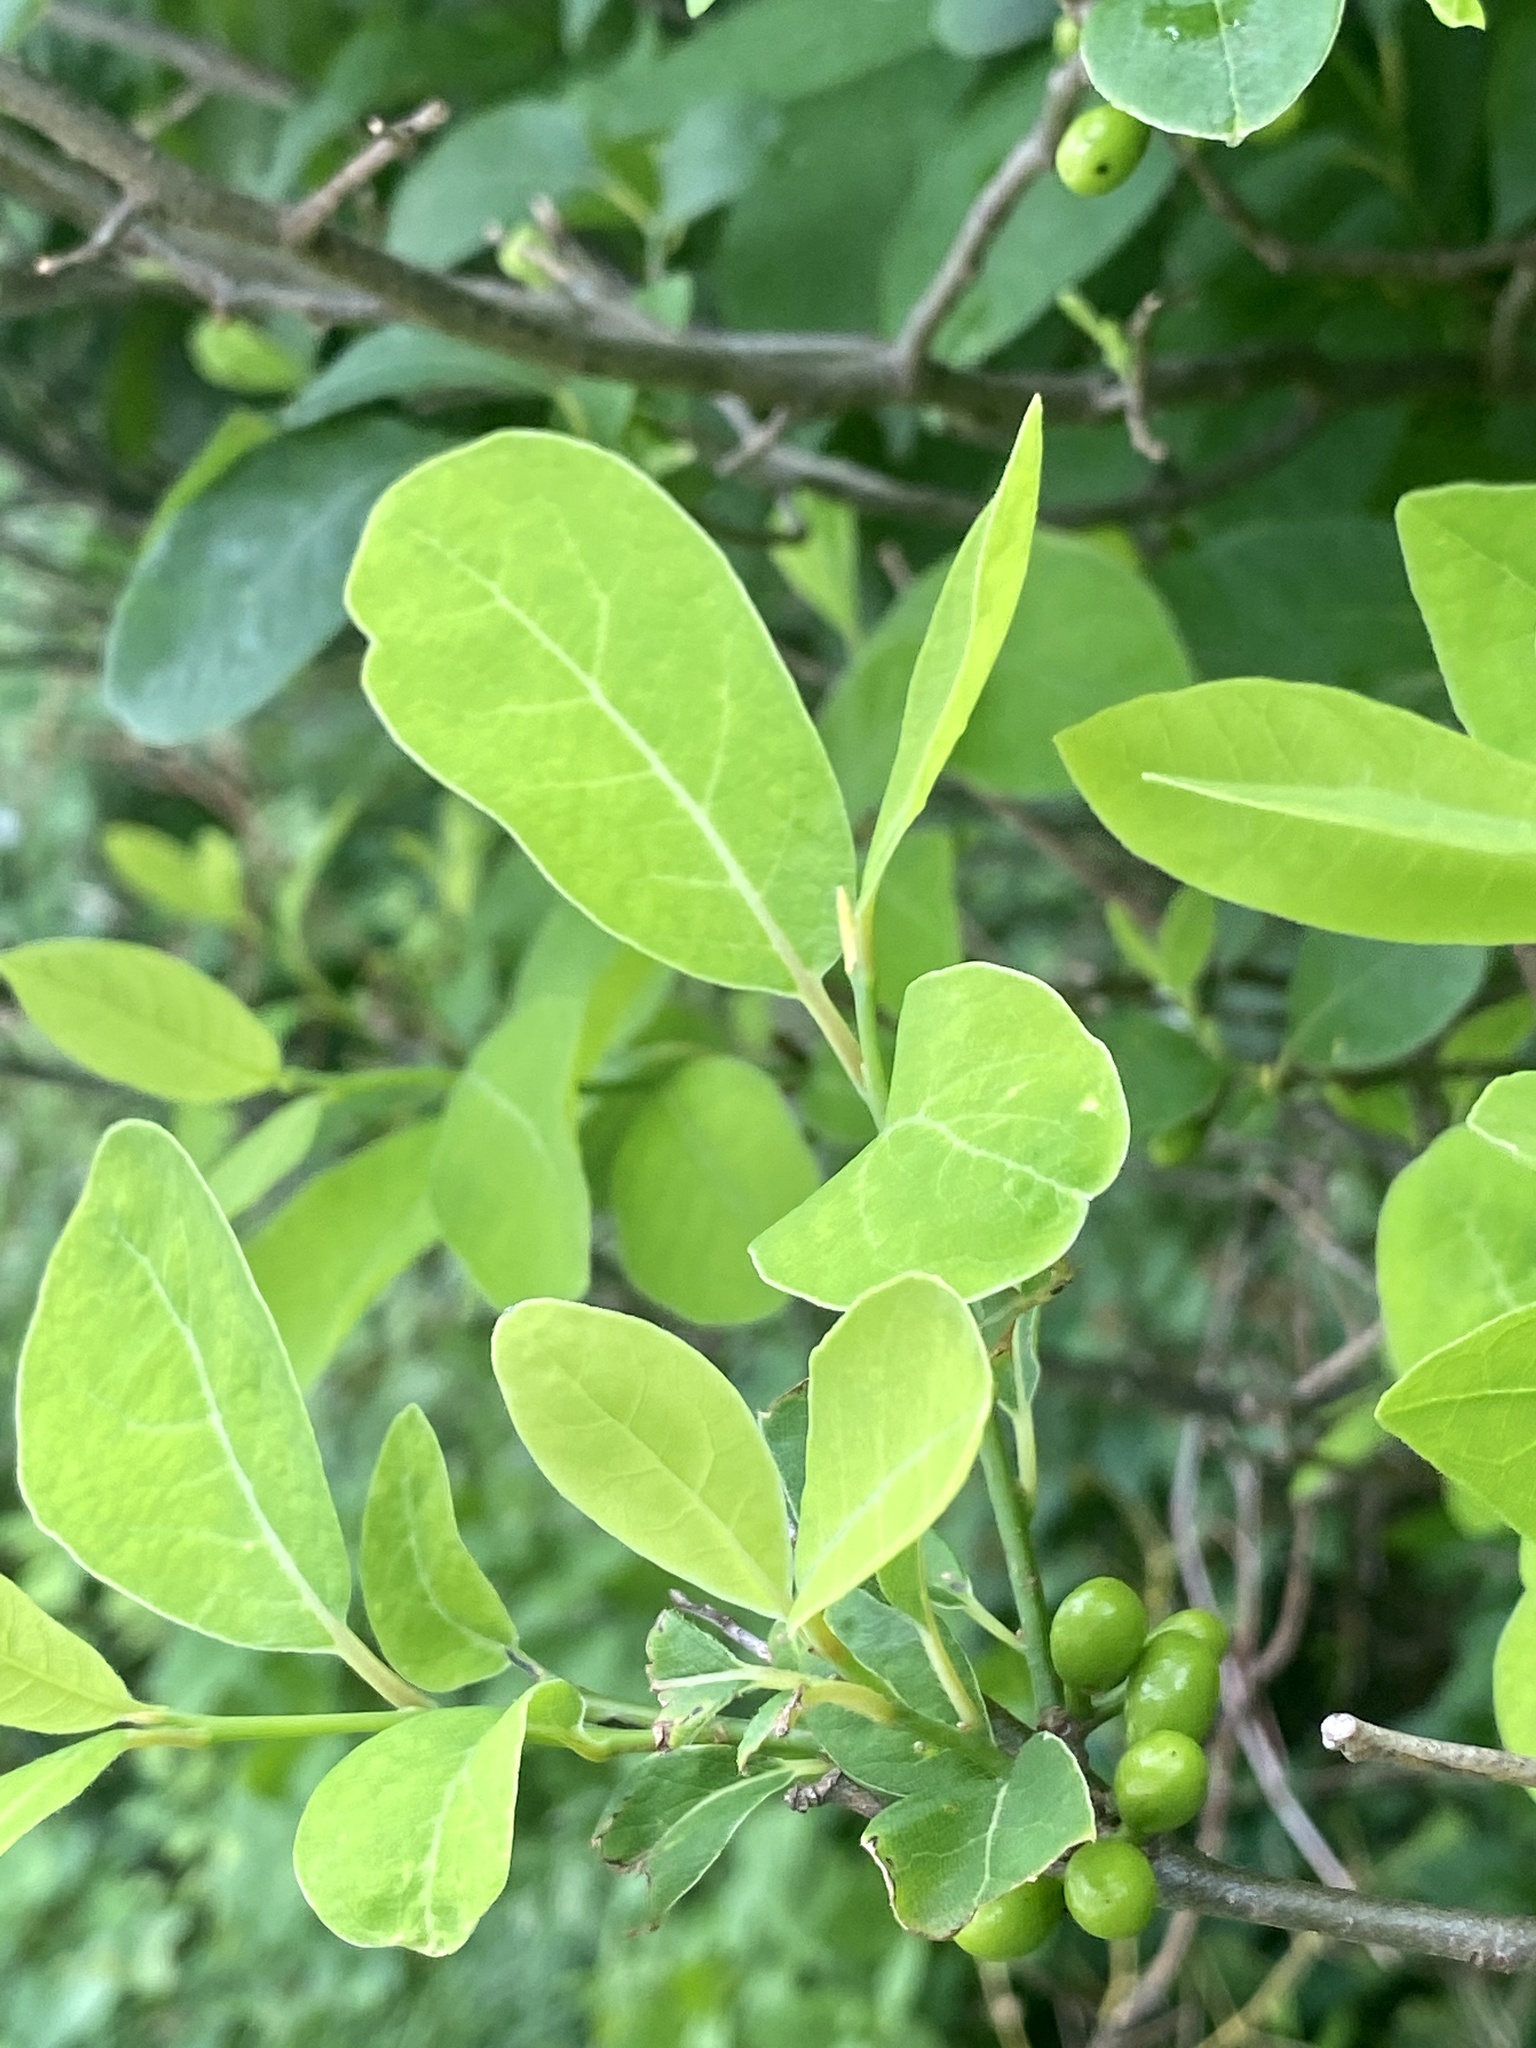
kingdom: Plantae
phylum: Tracheophyta
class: Magnoliopsida
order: Laurales
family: Lauraceae
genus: Lindera
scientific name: Lindera benzoin
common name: Spicebush
